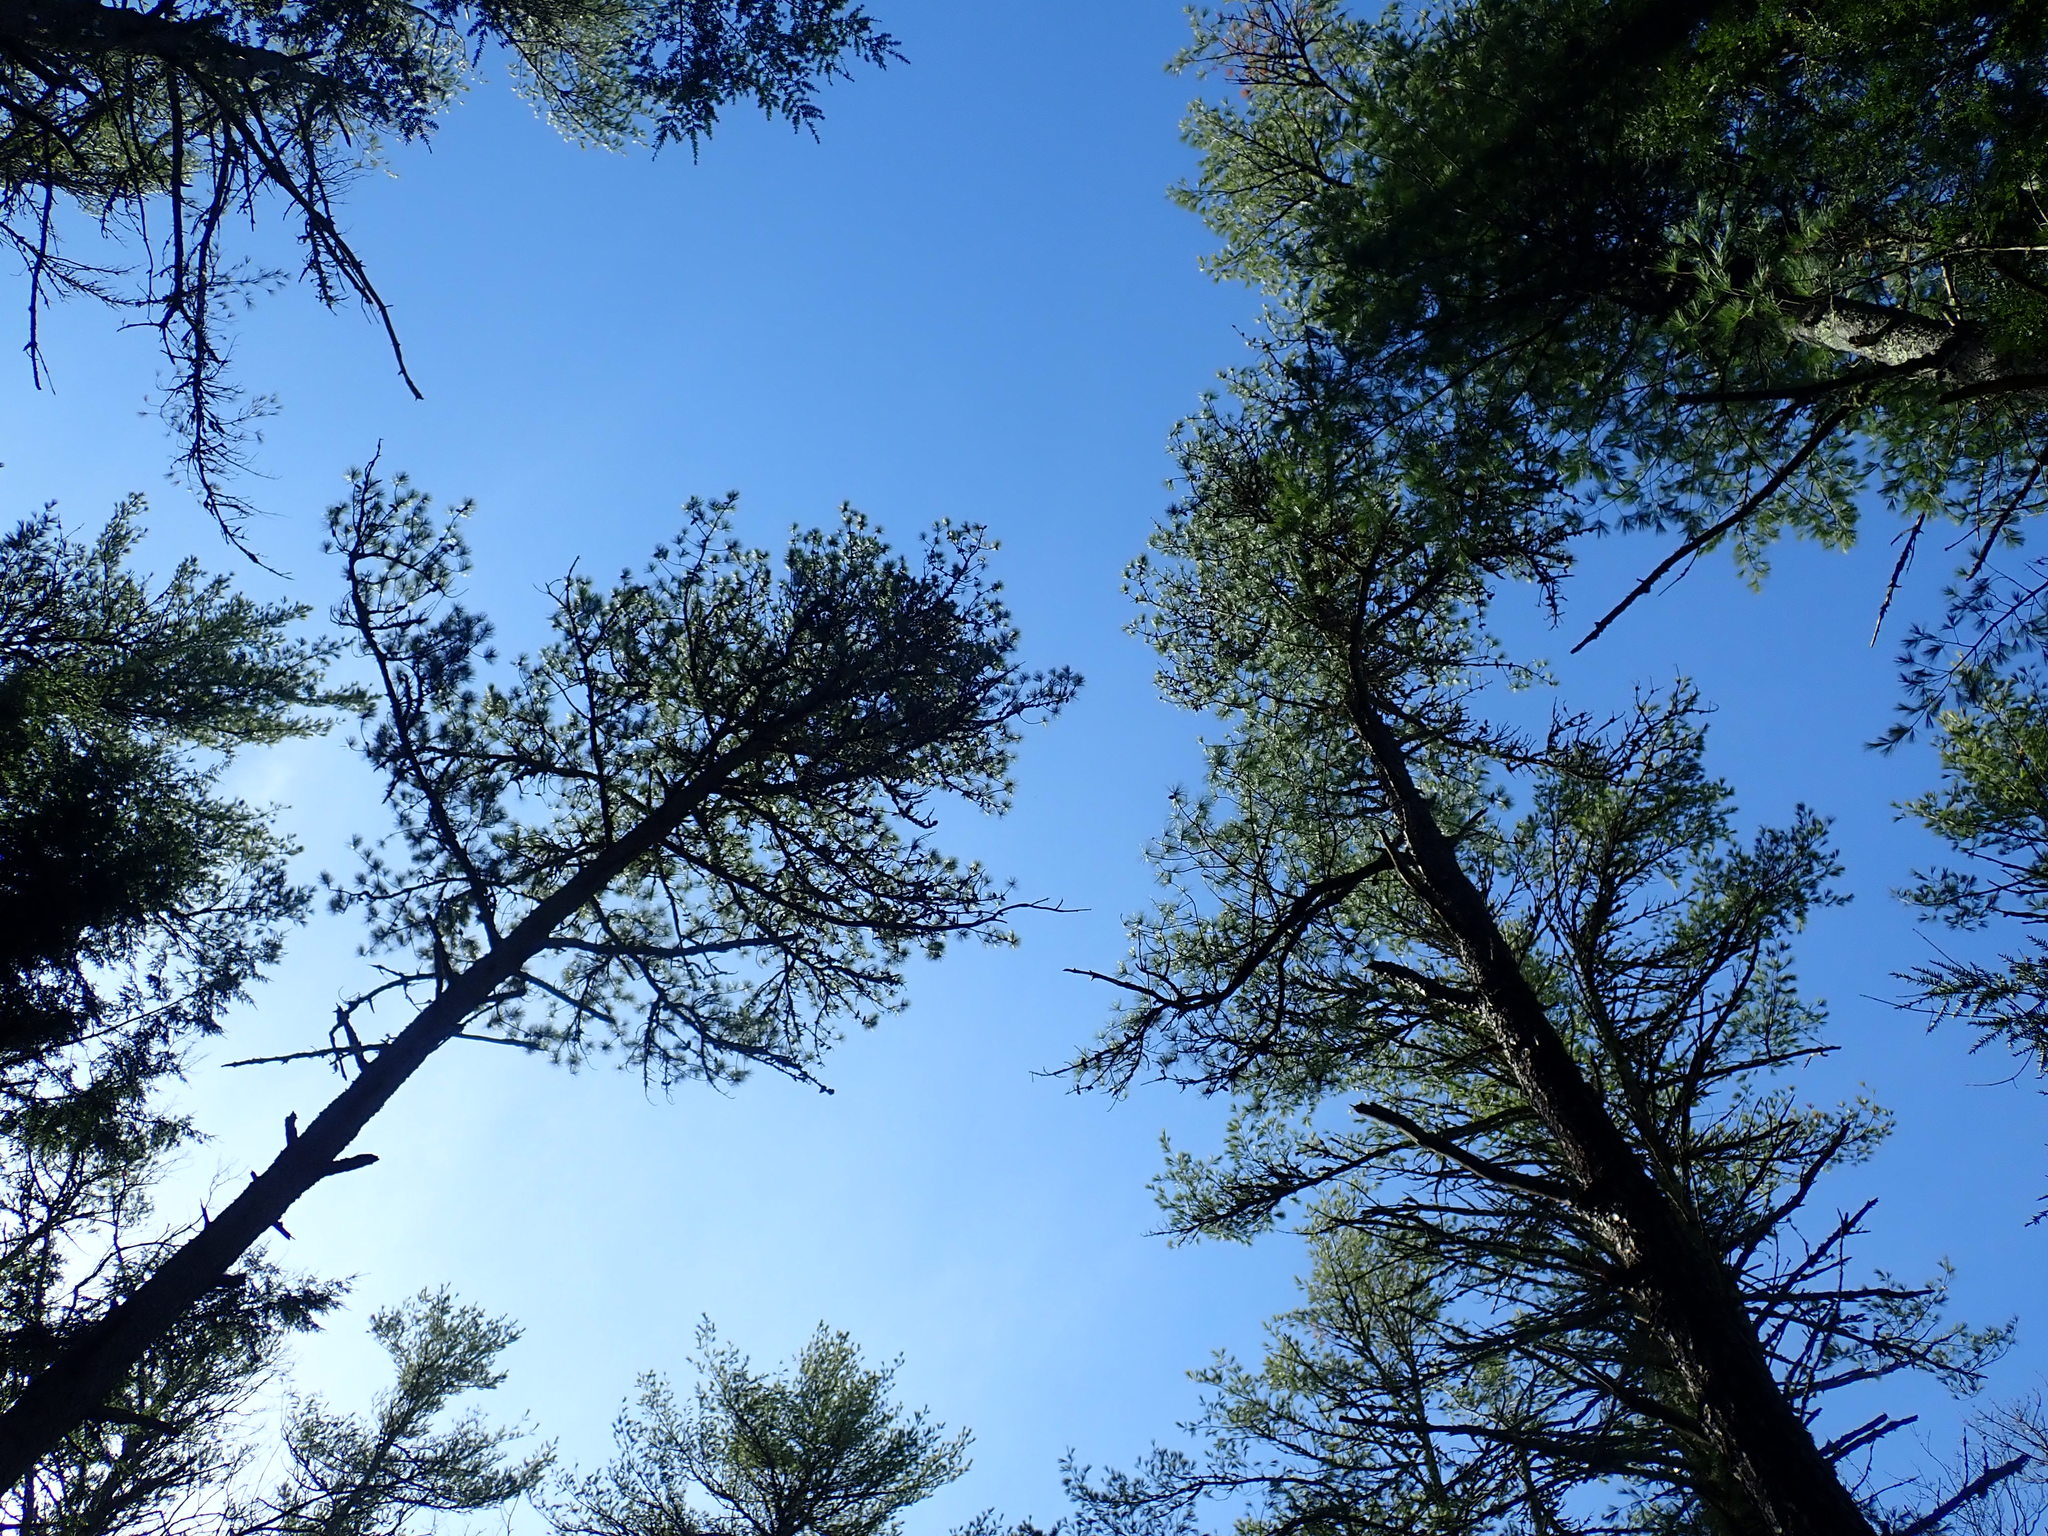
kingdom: Plantae
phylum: Tracheophyta
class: Pinopsida
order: Pinales
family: Pinaceae
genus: Pinus
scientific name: Pinus rigida
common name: Pitch pine
